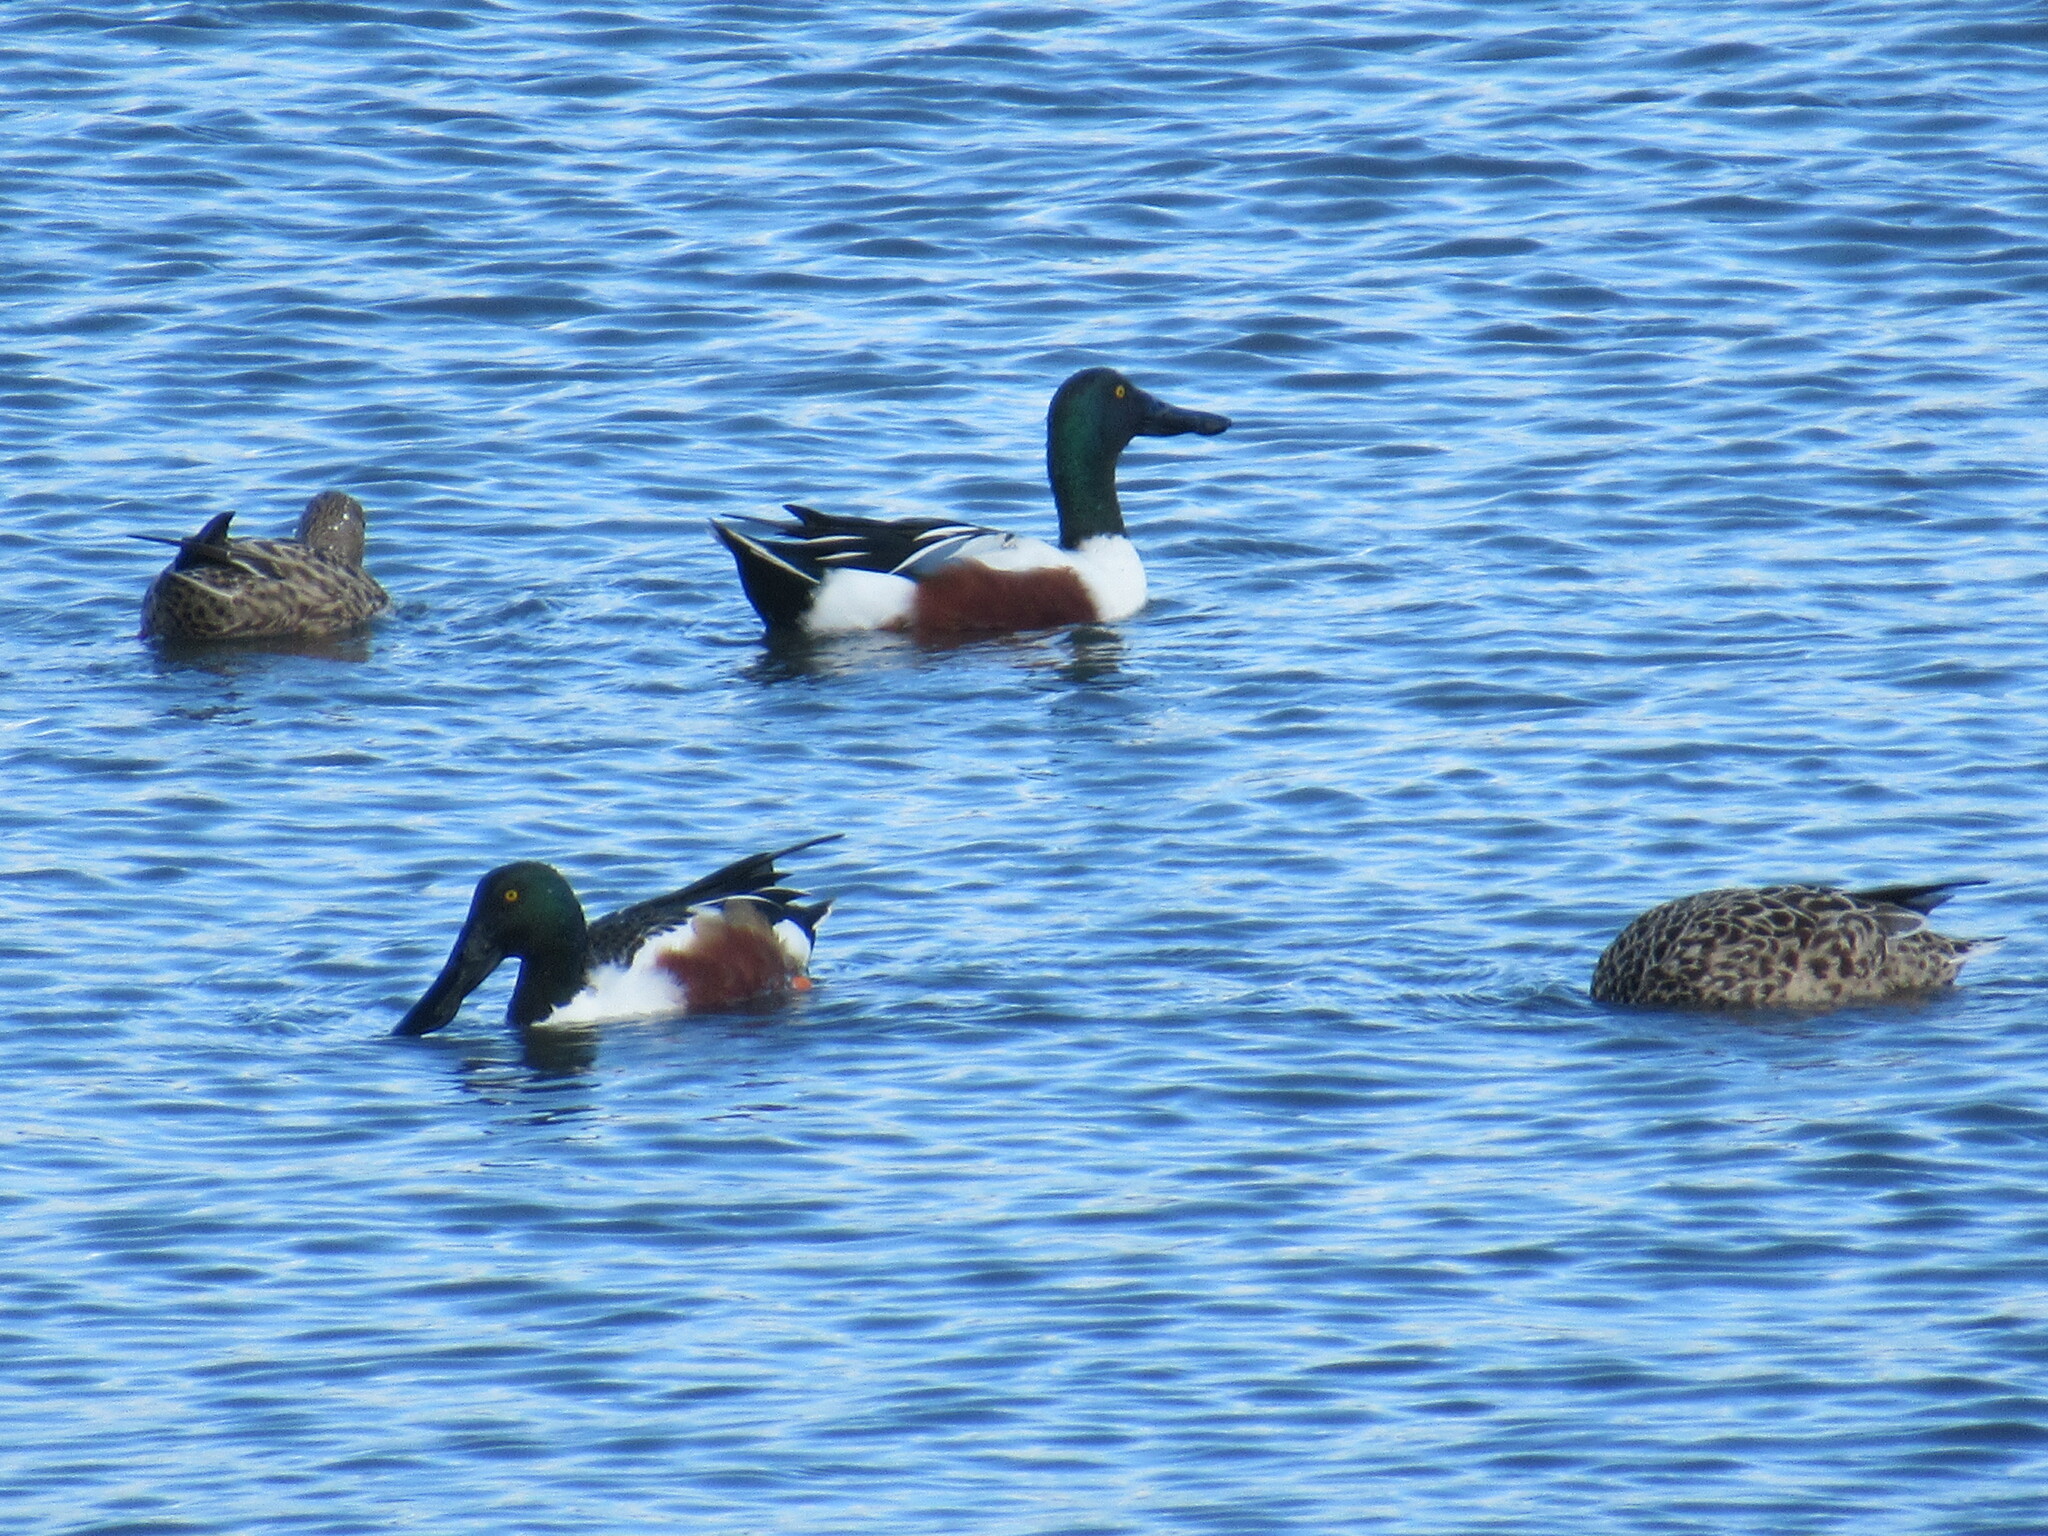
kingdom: Animalia
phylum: Chordata
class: Aves
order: Anseriformes
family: Anatidae
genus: Spatula
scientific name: Spatula clypeata
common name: Northern shoveler
